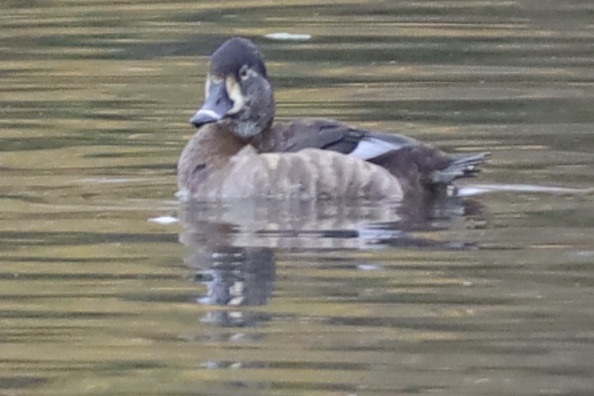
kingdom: Animalia
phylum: Chordata
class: Aves
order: Anseriformes
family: Anatidae
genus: Aythya
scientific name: Aythya collaris
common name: Ring-necked duck
